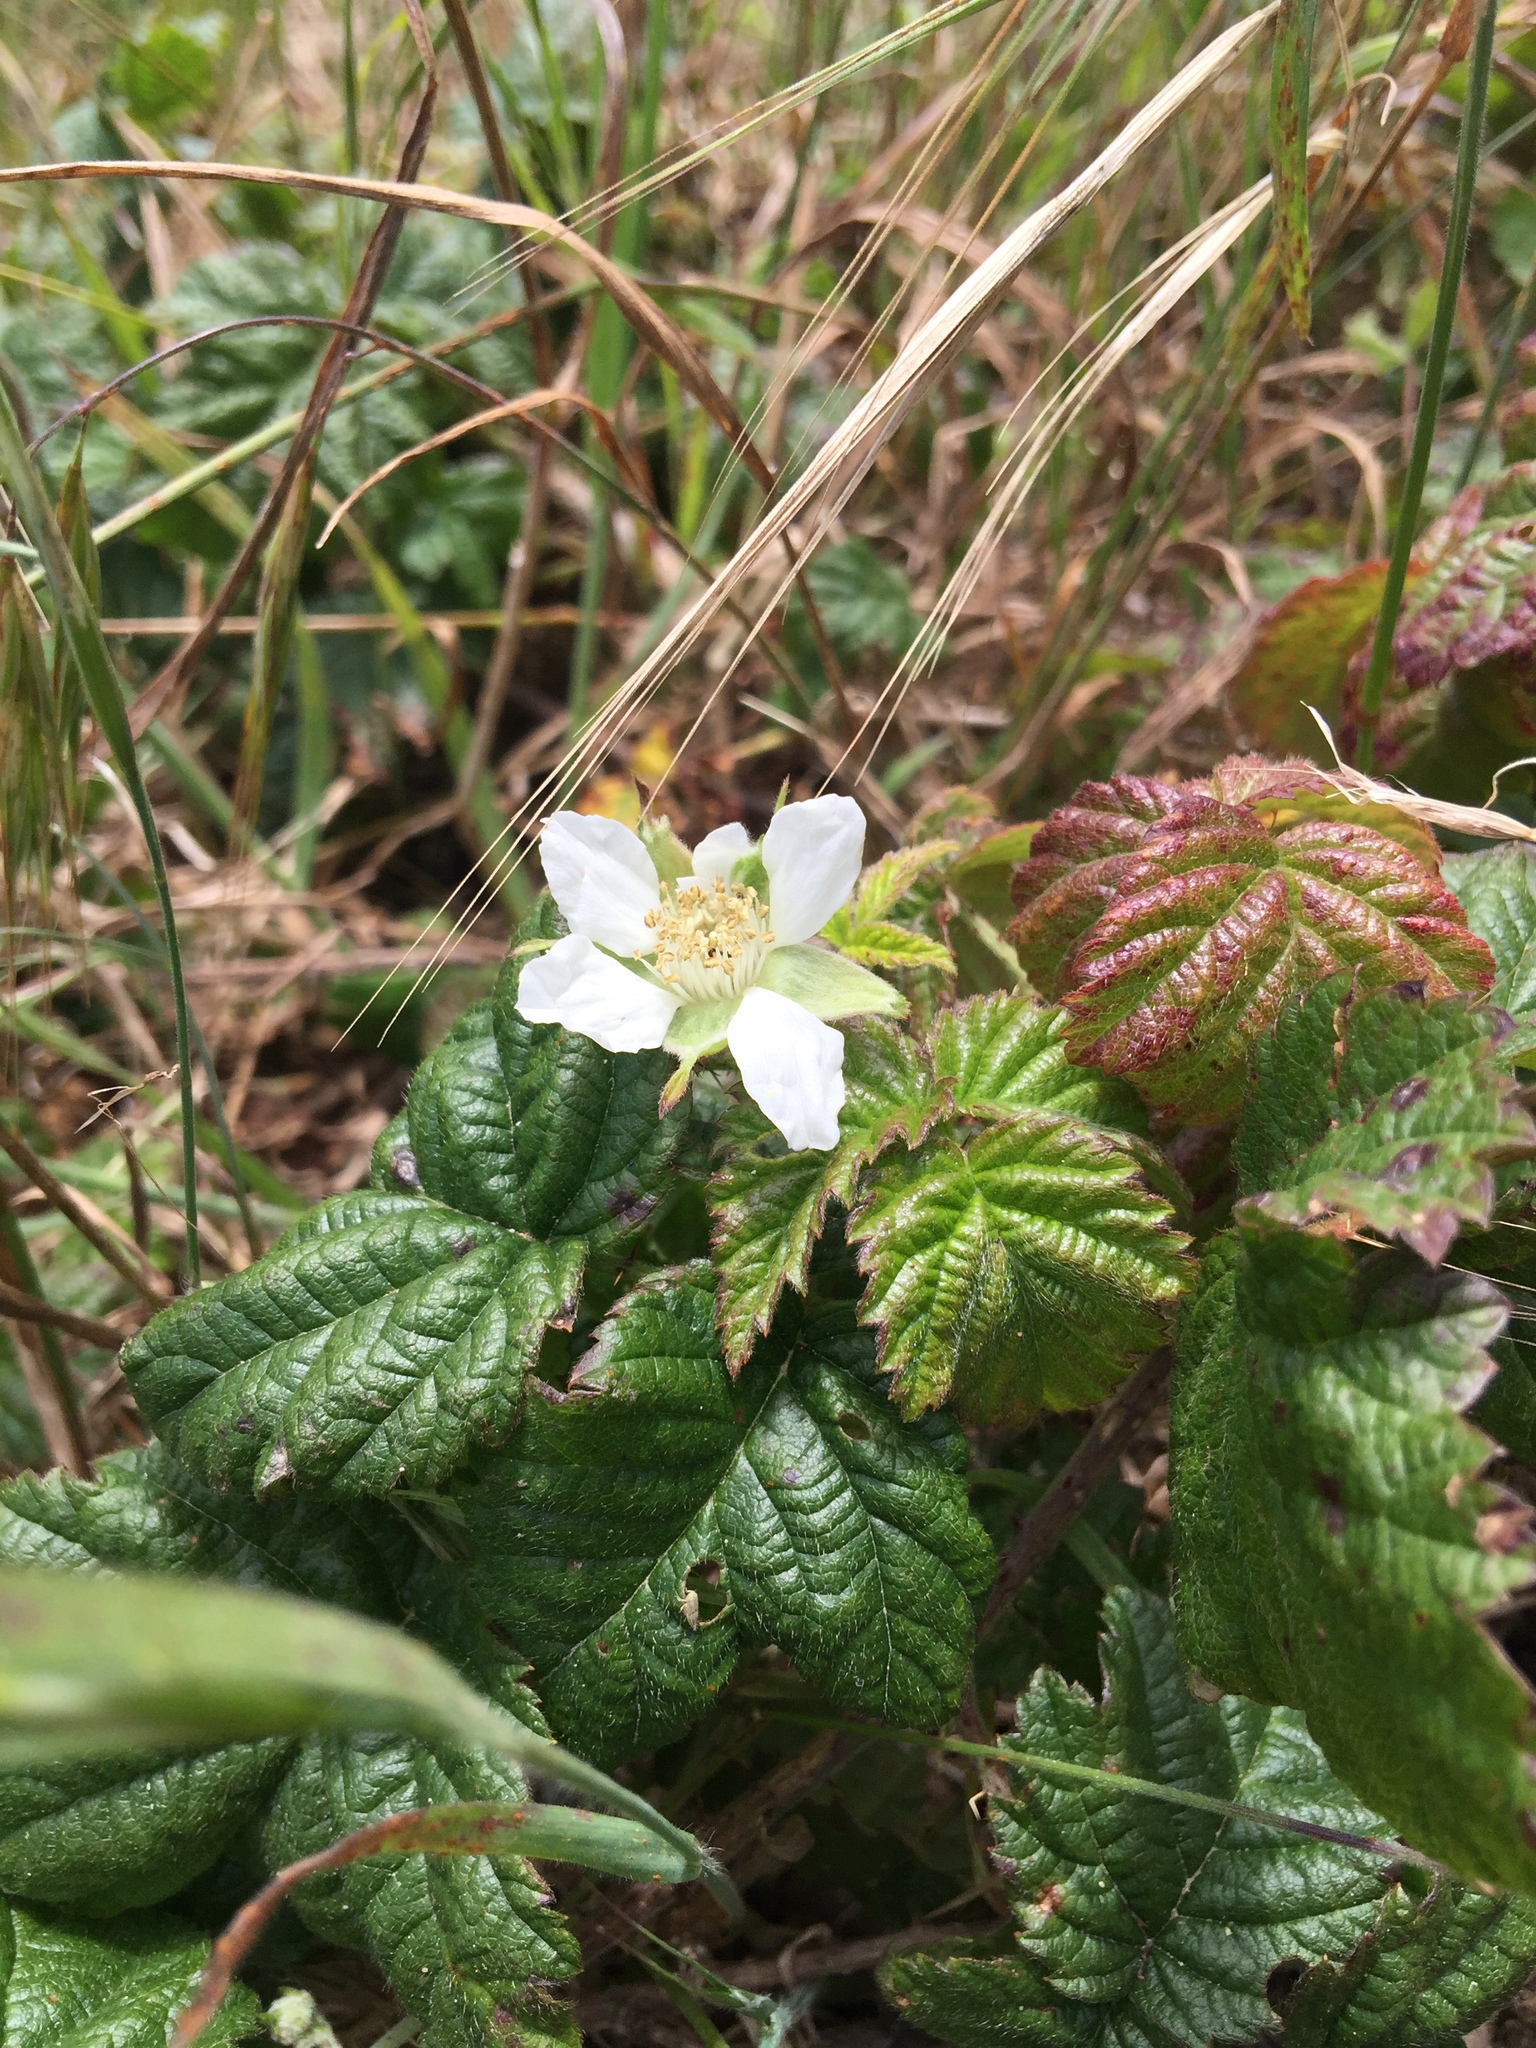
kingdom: Plantae
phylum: Tracheophyta
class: Magnoliopsida
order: Rosales
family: Rosaceae
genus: Rubus
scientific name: Rubus ursinus
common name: Pacific blackberry
